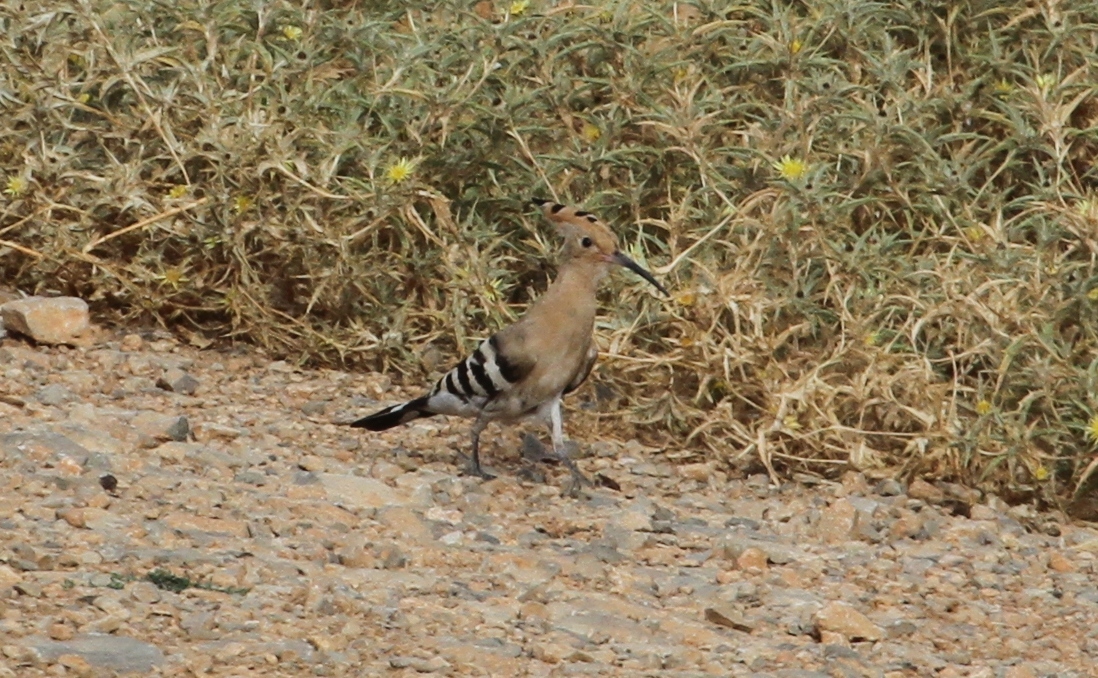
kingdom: Animalia
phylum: Chordata
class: Aves
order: Bucerotiformes
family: Upupidae
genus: Upupa
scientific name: Upupa epops
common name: Eurasian hoopoe
